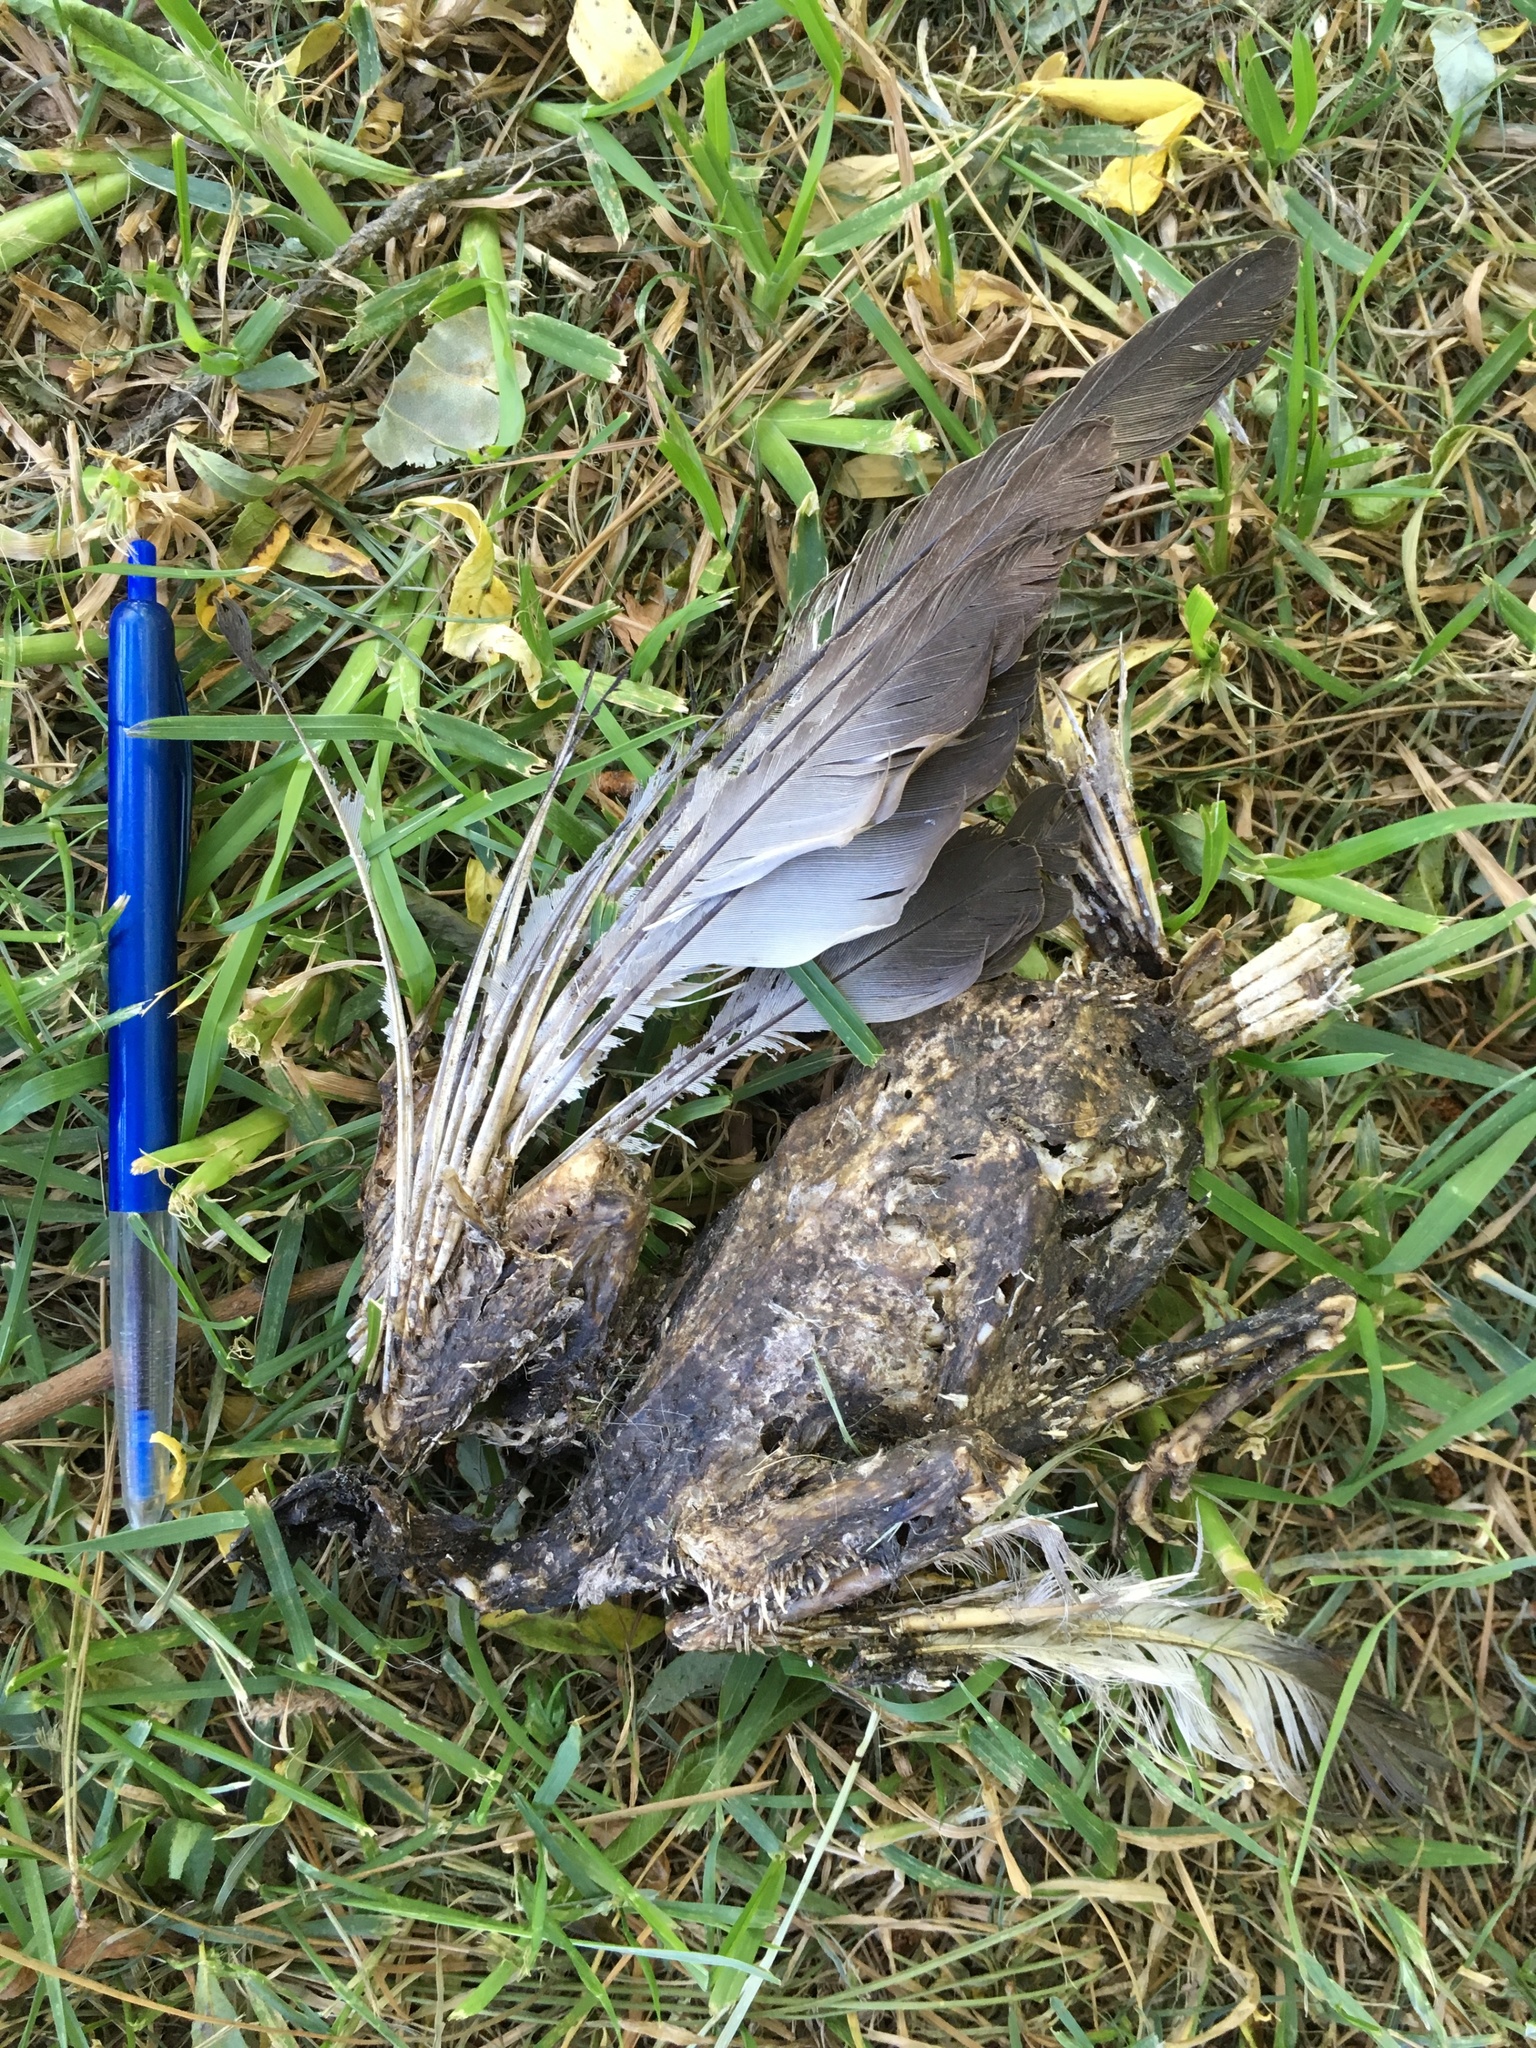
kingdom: Animalia
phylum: Chordata
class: Aves
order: Columbiformes
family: Columbidae
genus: Columba
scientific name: Columba livia
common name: Rock pigeon
